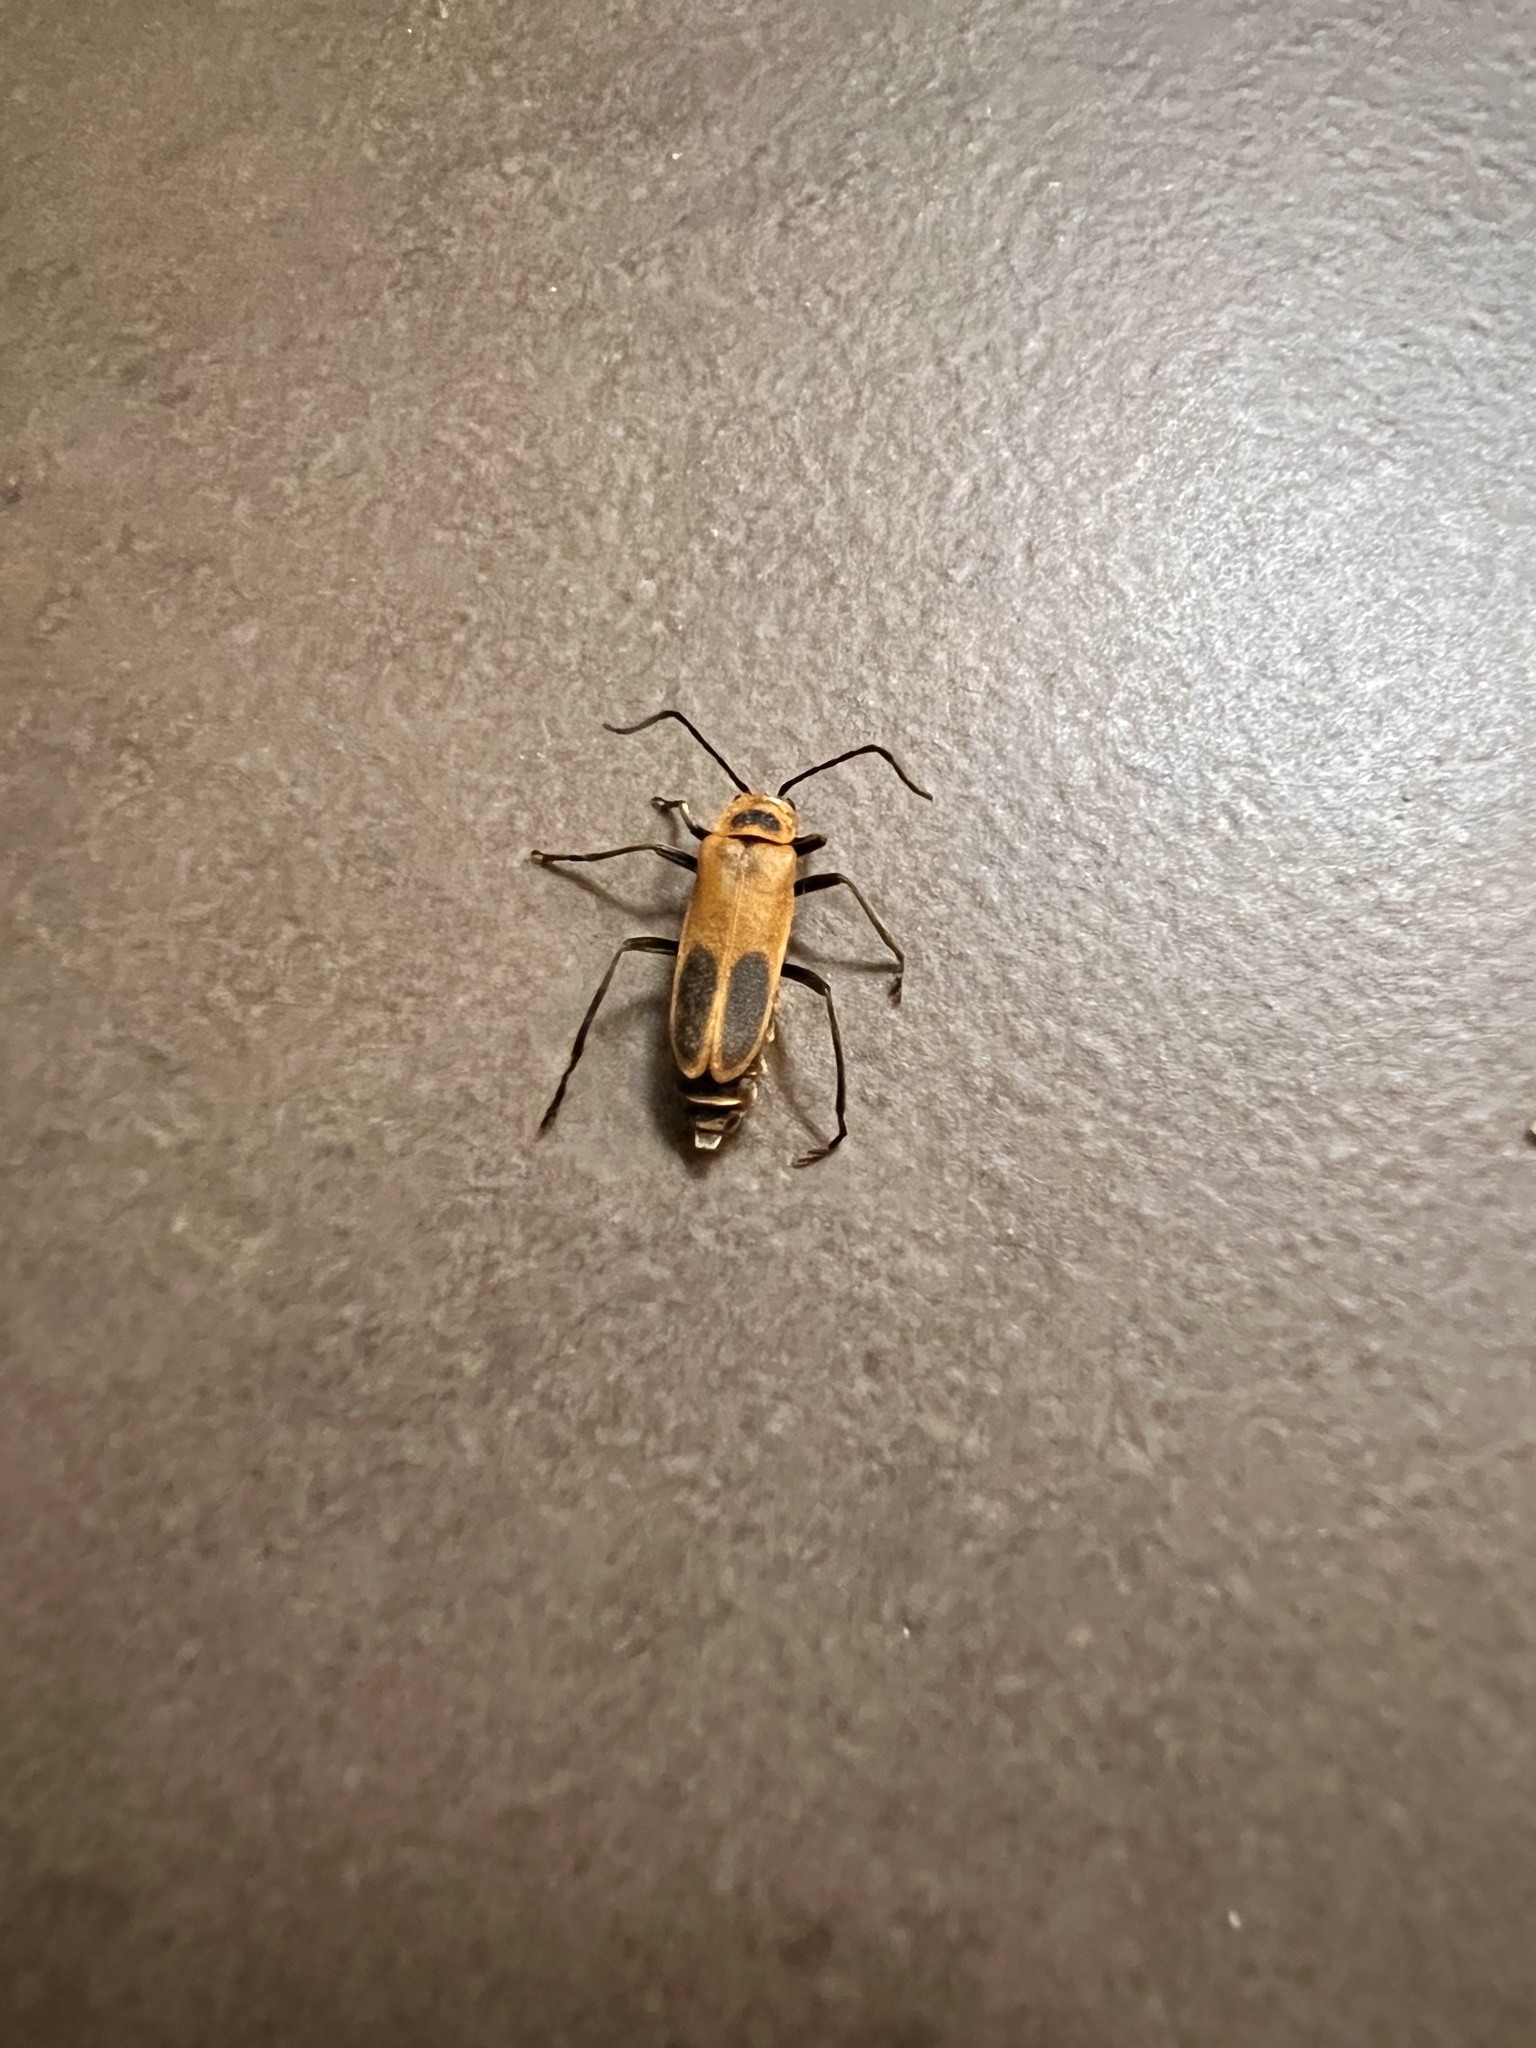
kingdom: Animalia
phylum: Arthropoda
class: Insecta
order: Coleoptera
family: Cantharidae
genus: Chauliognathus
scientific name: Chauliognathus pensylvanicus
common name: Goldenrod soldier beetle
